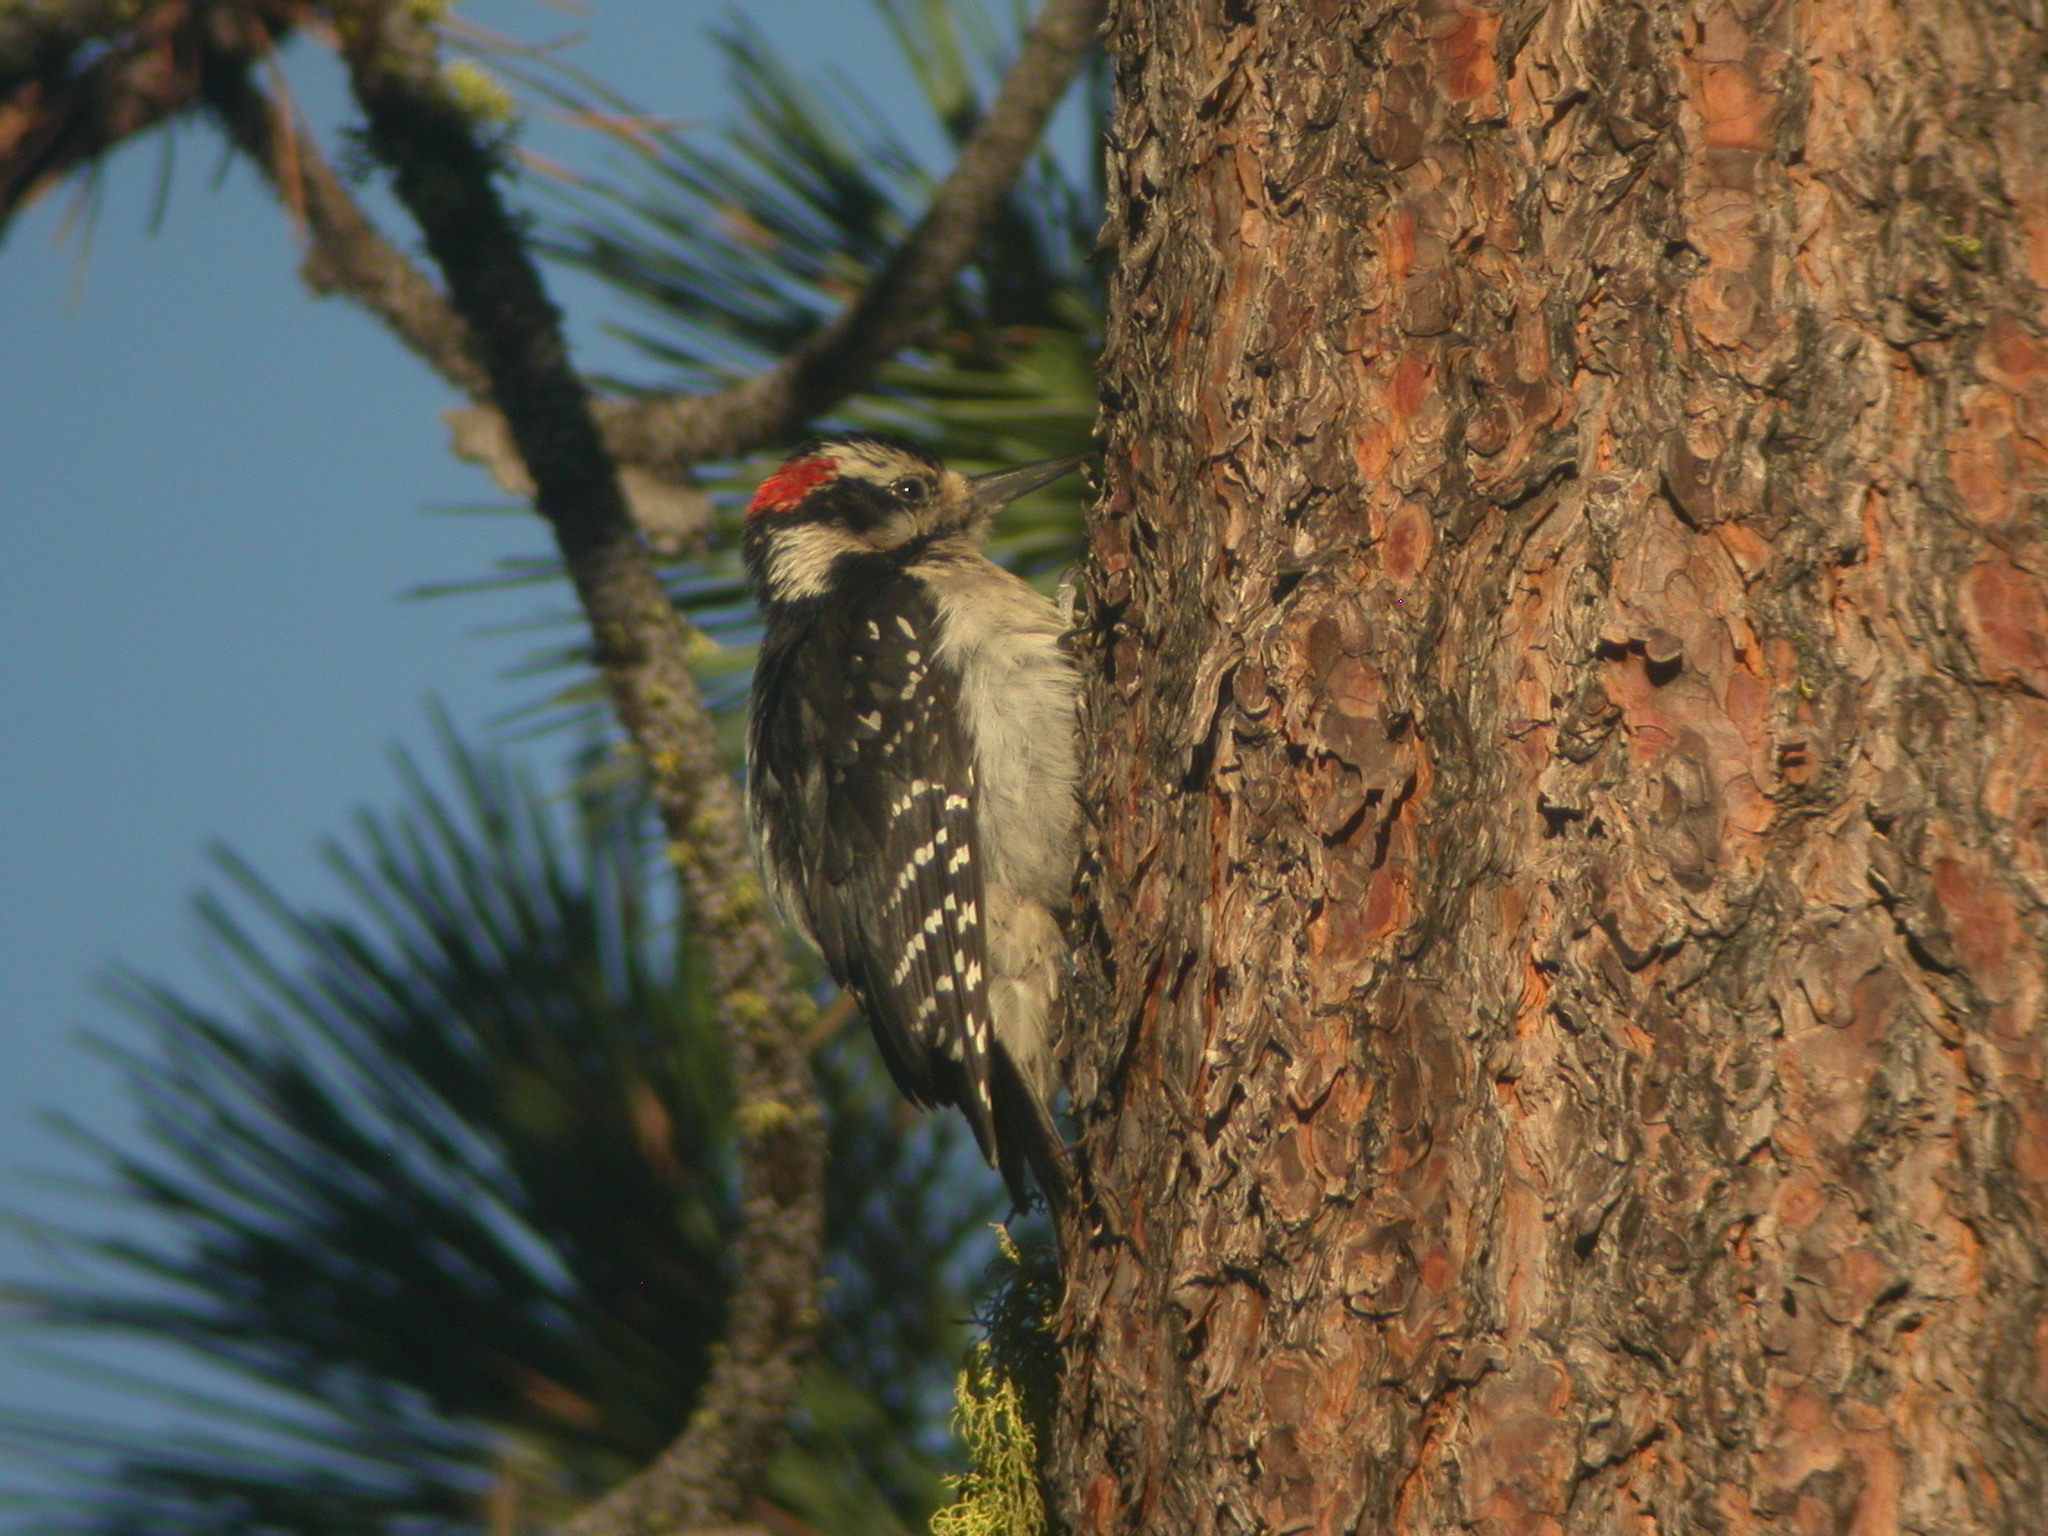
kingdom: Animalia
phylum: Chordata
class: Aves
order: Piciformes
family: Picidae
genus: Leuconotopicus
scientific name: Leuconotopicus villosus
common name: Hairy woodpecker
